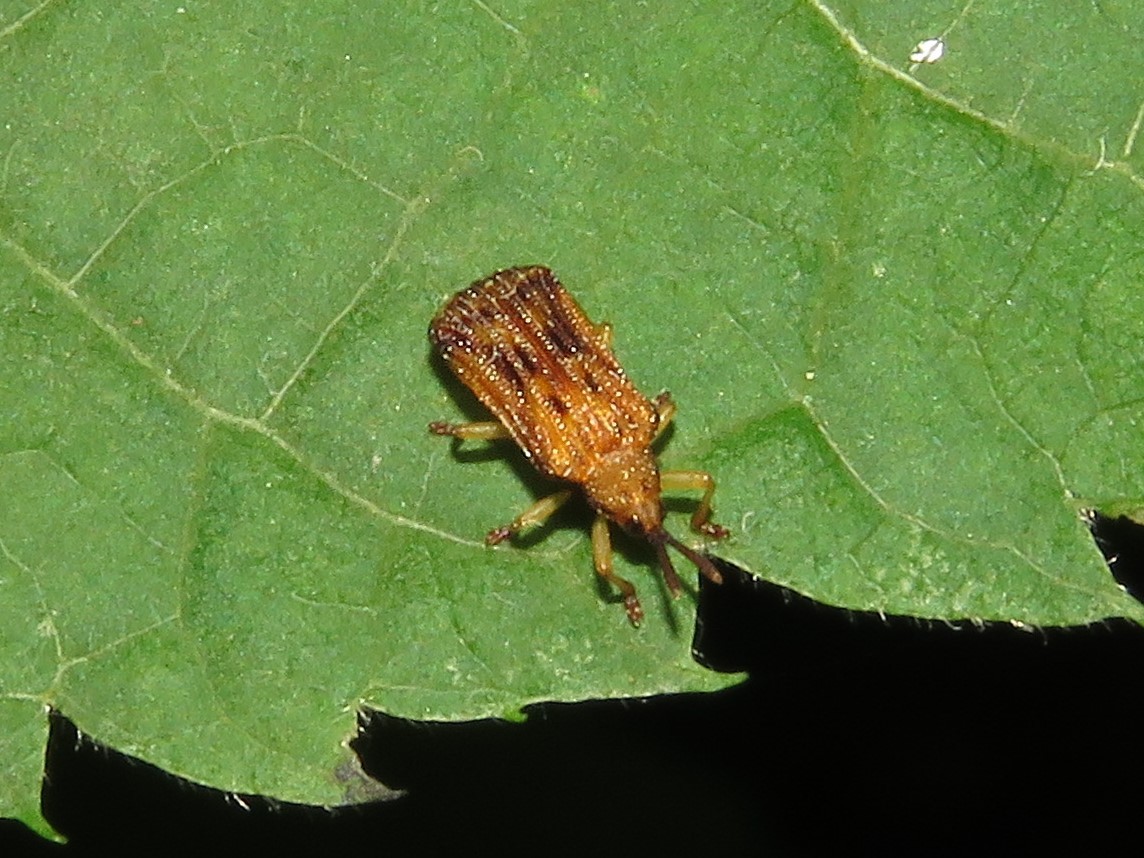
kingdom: Animalia
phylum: Arthropoda
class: Insecta
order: Coleoptera
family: Chrysomelidae
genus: Baliosus
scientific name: Baliosus nervosus
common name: Basswood leaf miner
